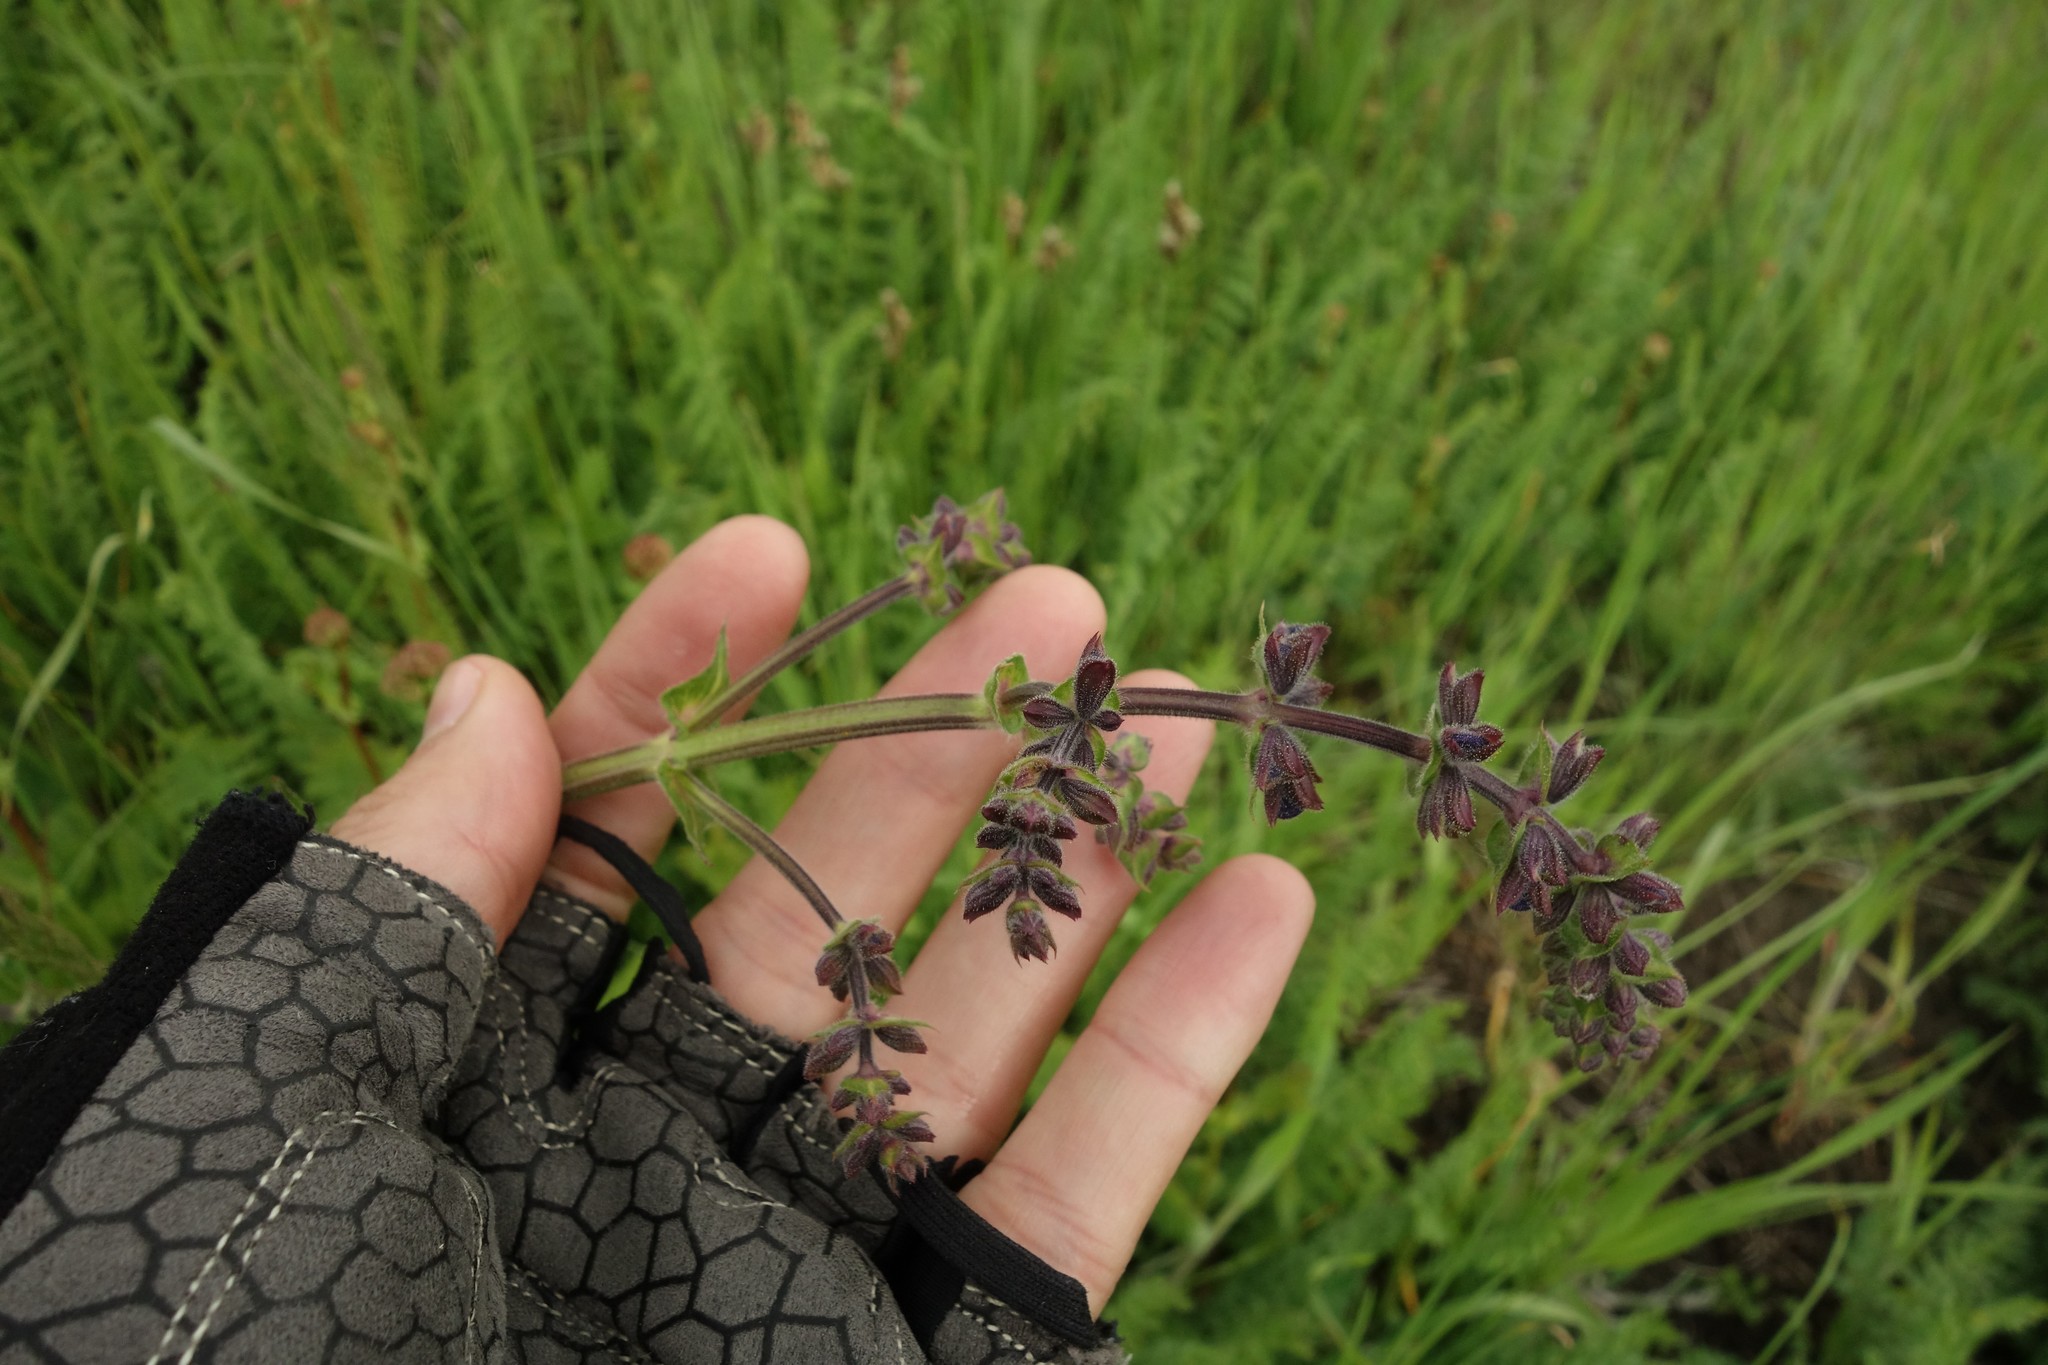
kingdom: Plantae
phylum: Tracheophyta
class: Magnoliopsida
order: Lamiales
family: Lamiaceae
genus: Salvia
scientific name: Salvia pratensis
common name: Meadow sage
